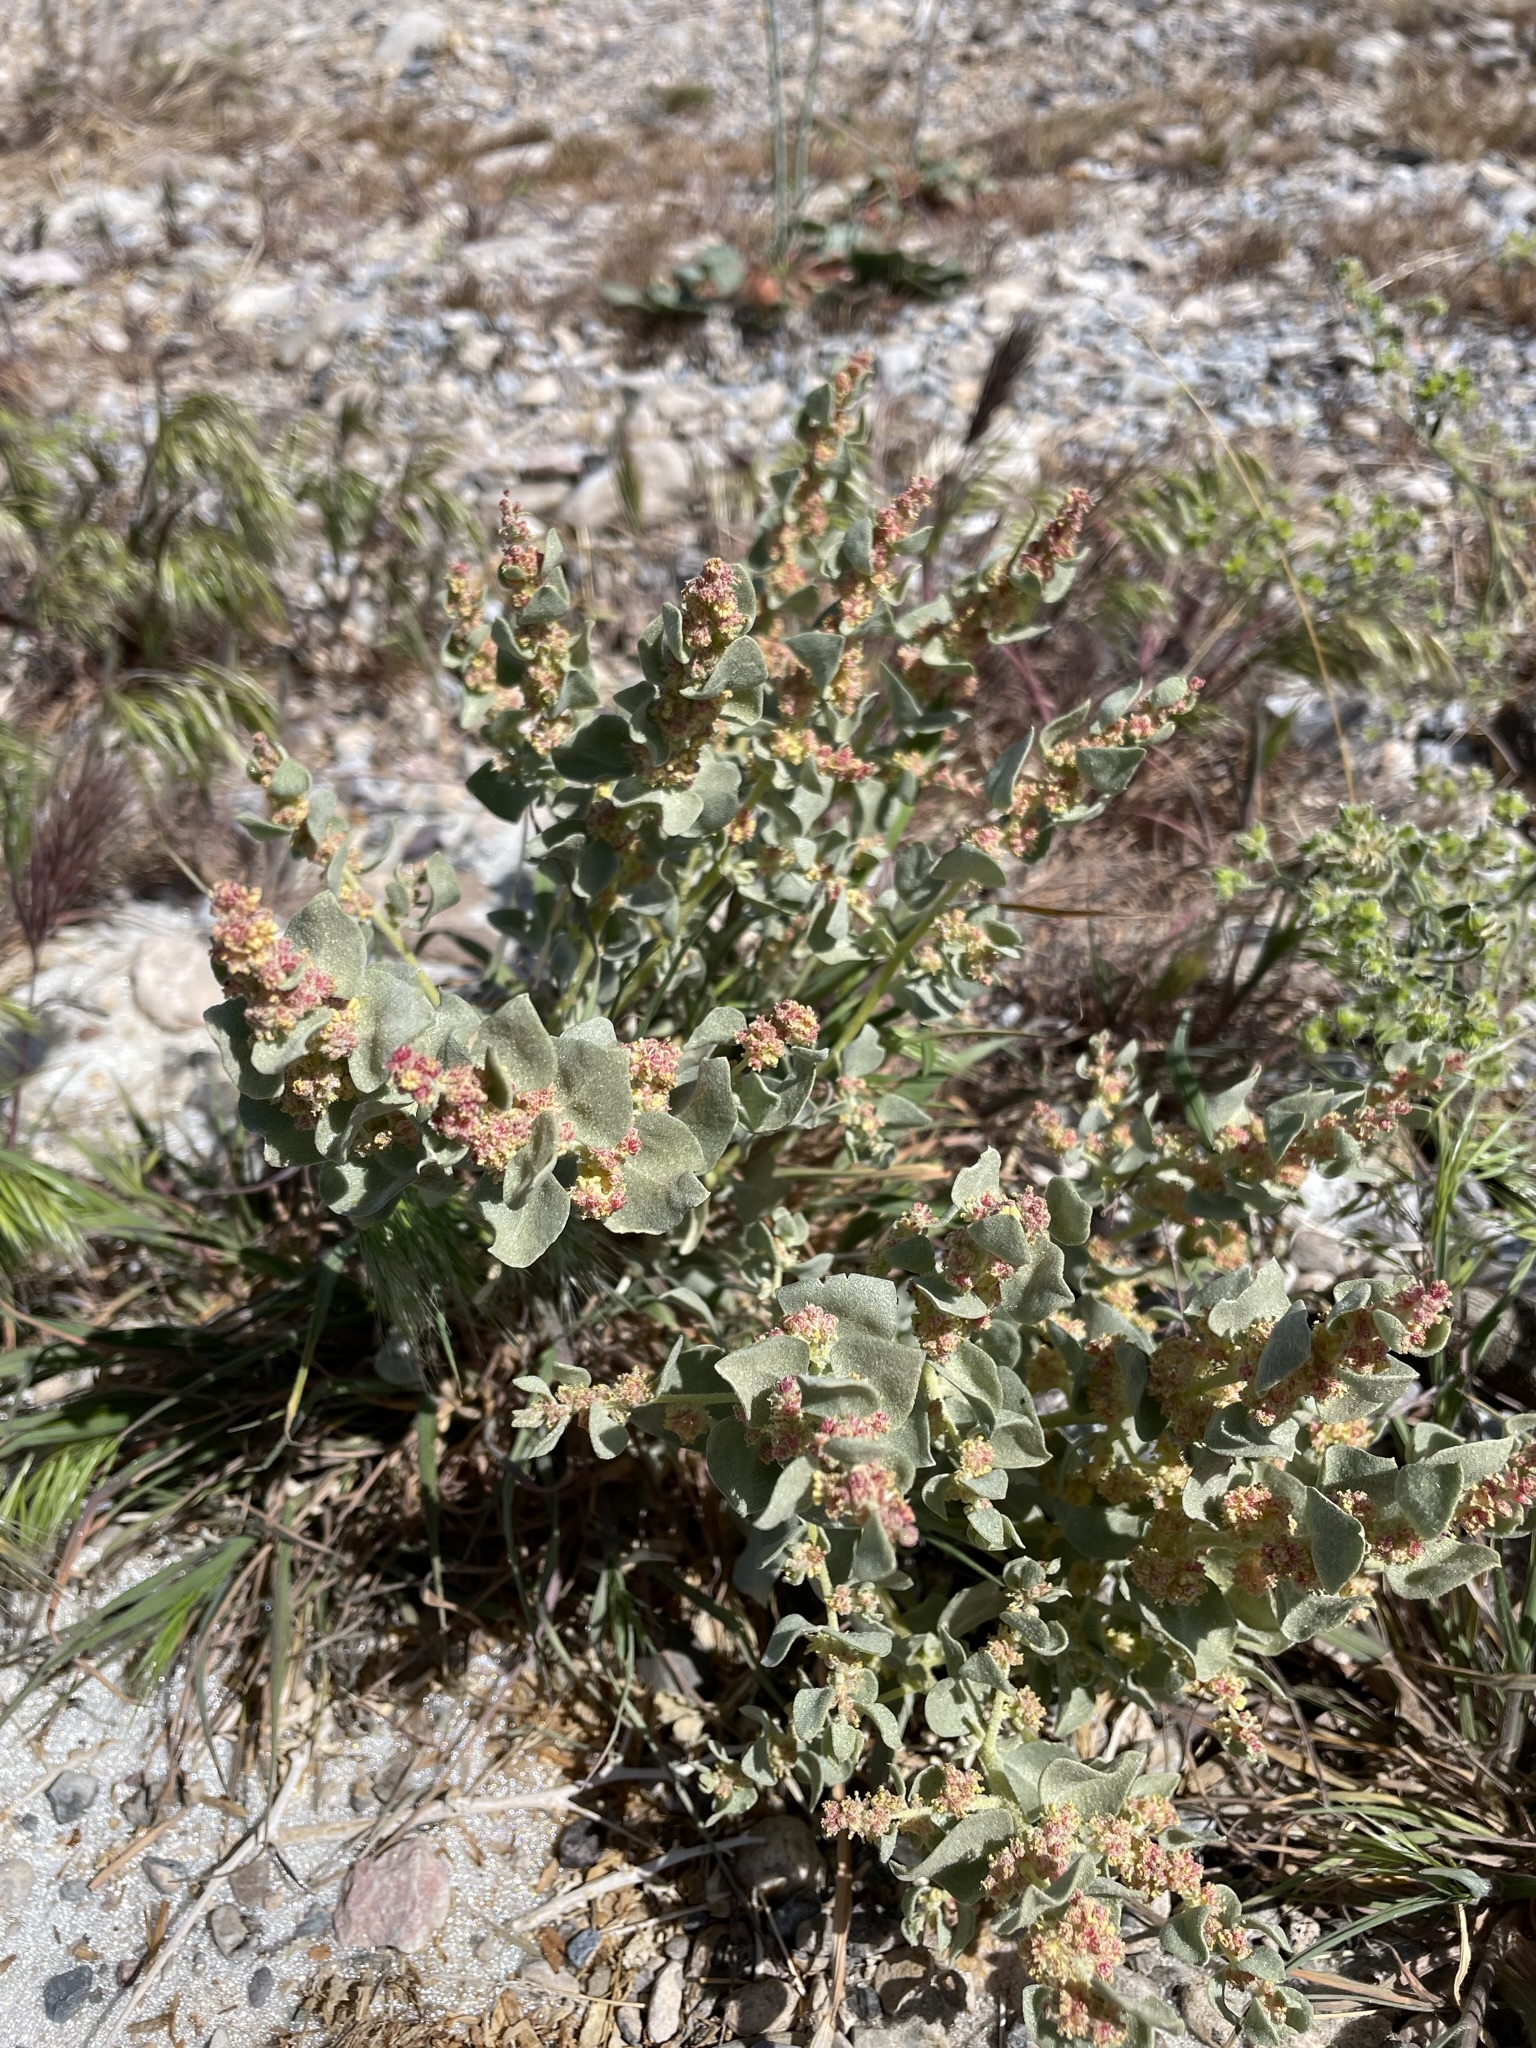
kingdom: Plantae
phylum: Tracheophyta
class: Magnoliopsida
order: Caryophyllales
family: Amaranthaceae
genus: Atriplex
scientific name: Atriplex parryi
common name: Parry's saltbush
